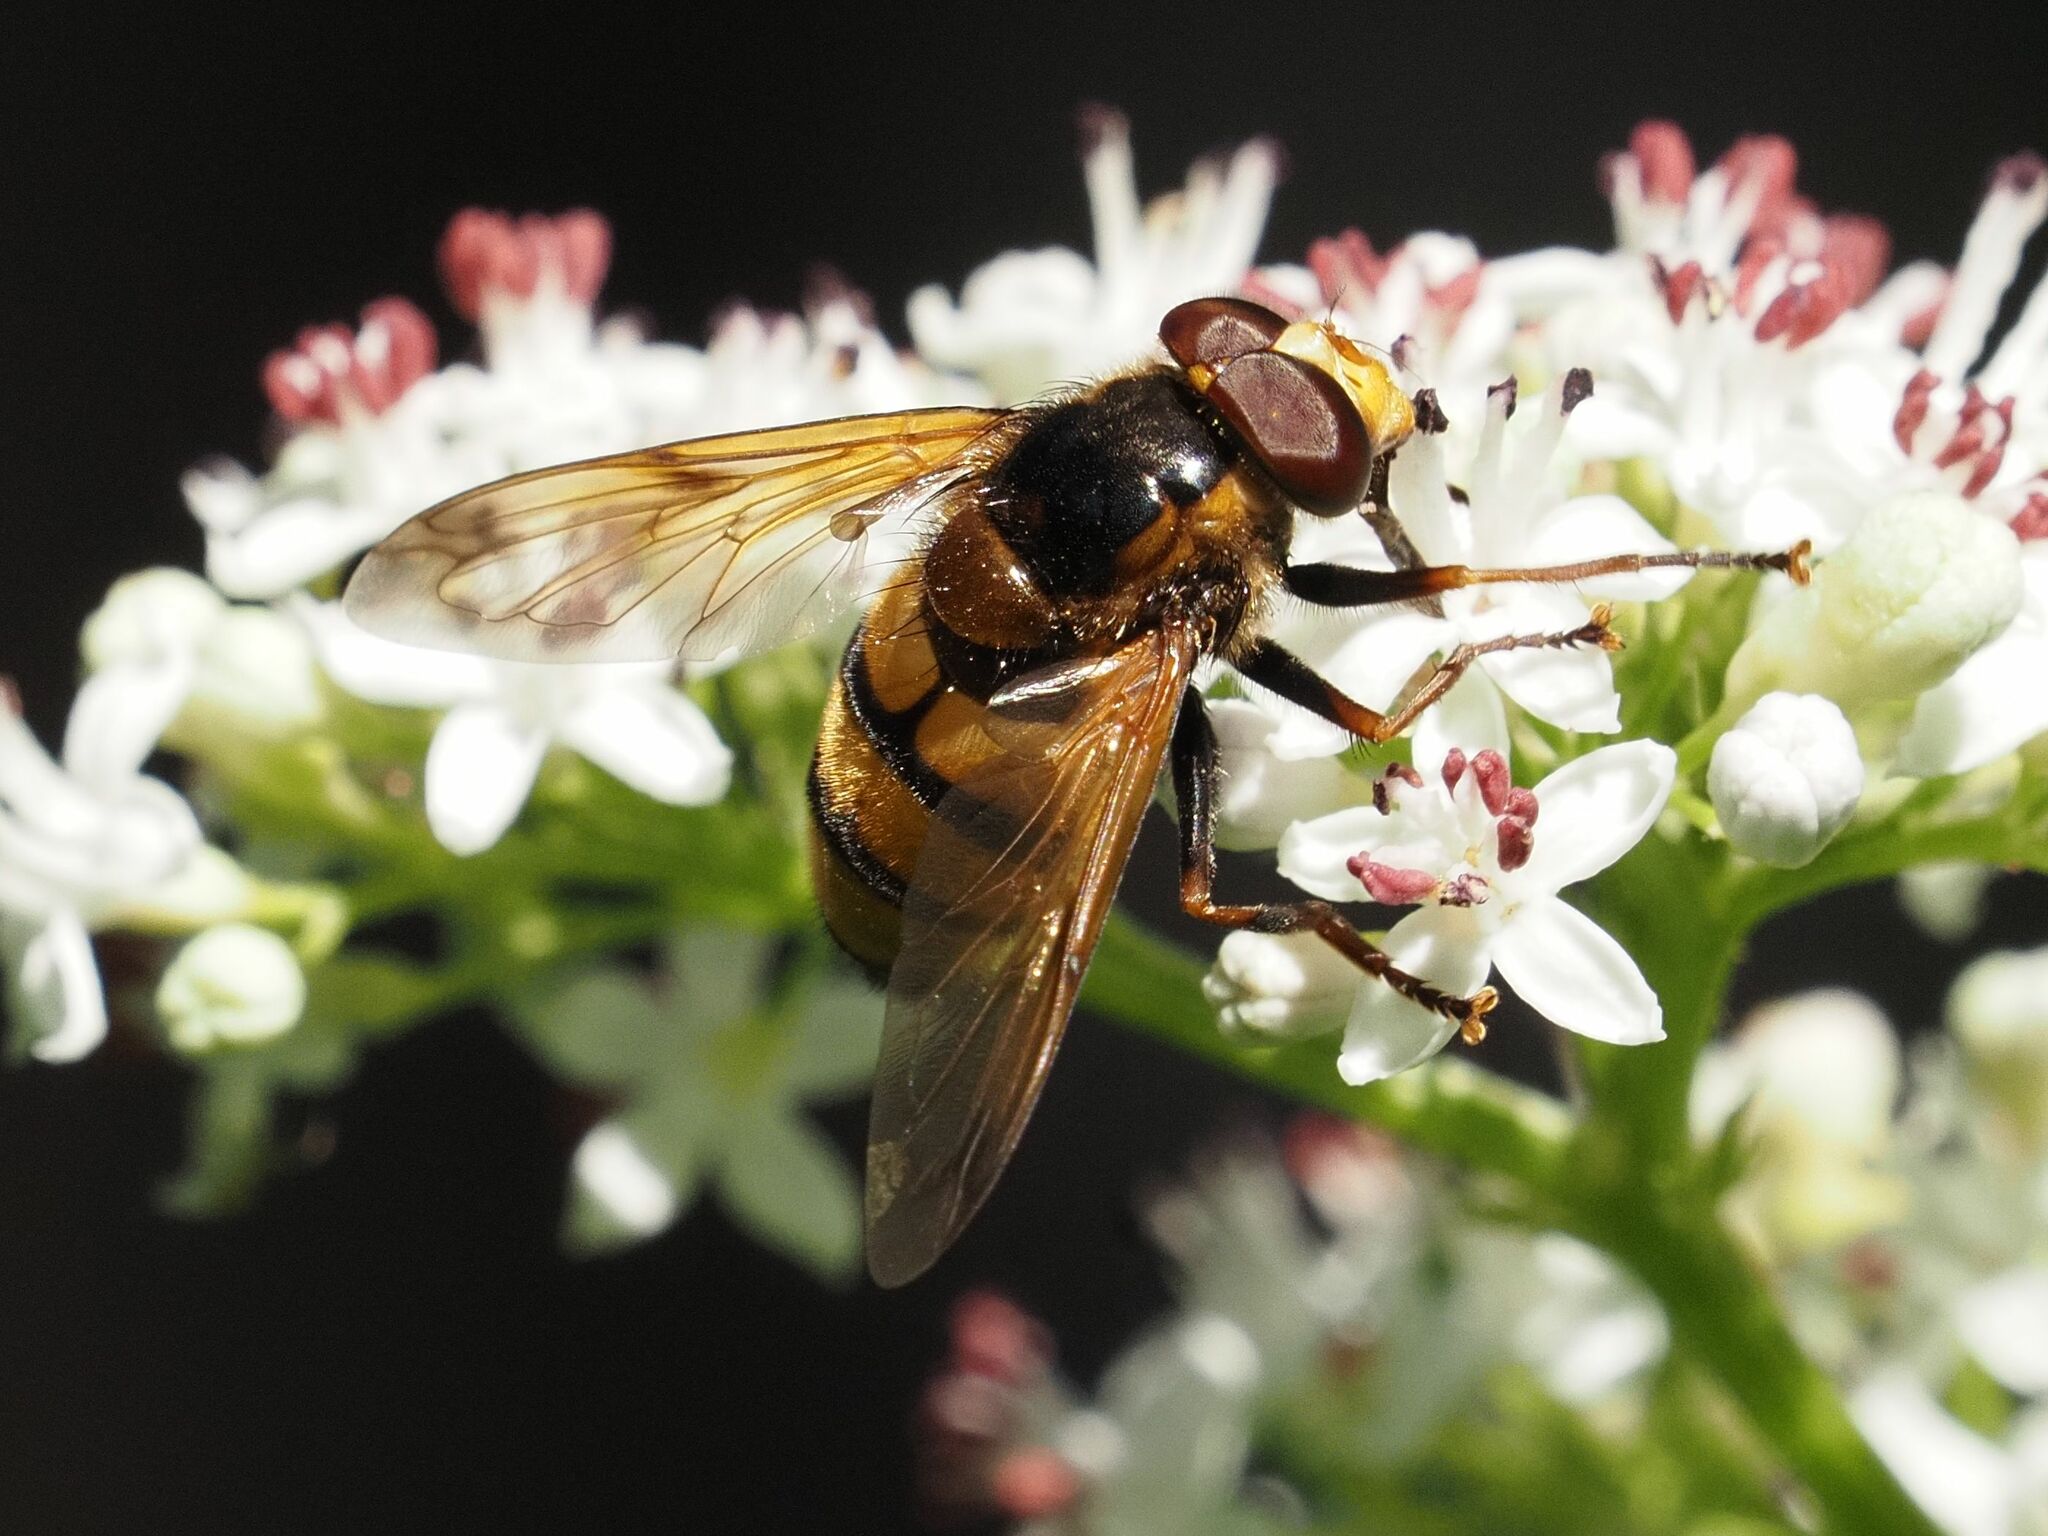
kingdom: Animalia
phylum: Arthropoda
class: Insecta
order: Diptera
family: Syrphidae
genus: Volucella
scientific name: Volucella inanis
